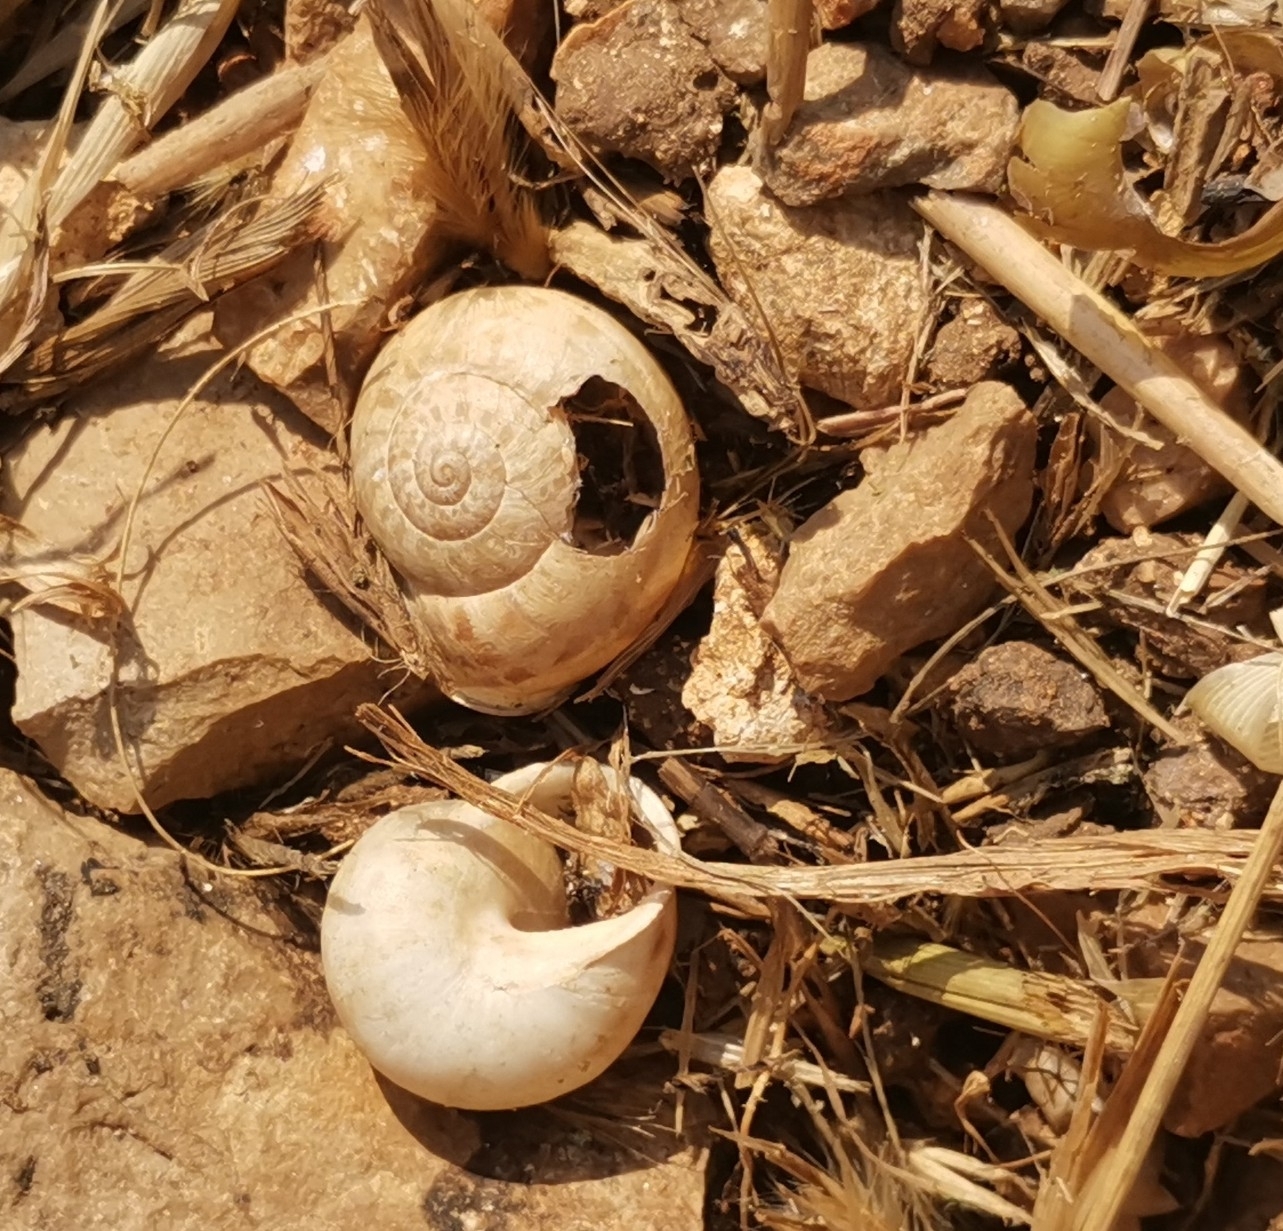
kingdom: Animalia
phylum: Mollusca
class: Gastropoda
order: Stylommatophora
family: Helicidae
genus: Eobania
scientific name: Eobania vermiculata
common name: Chocolateband snail
